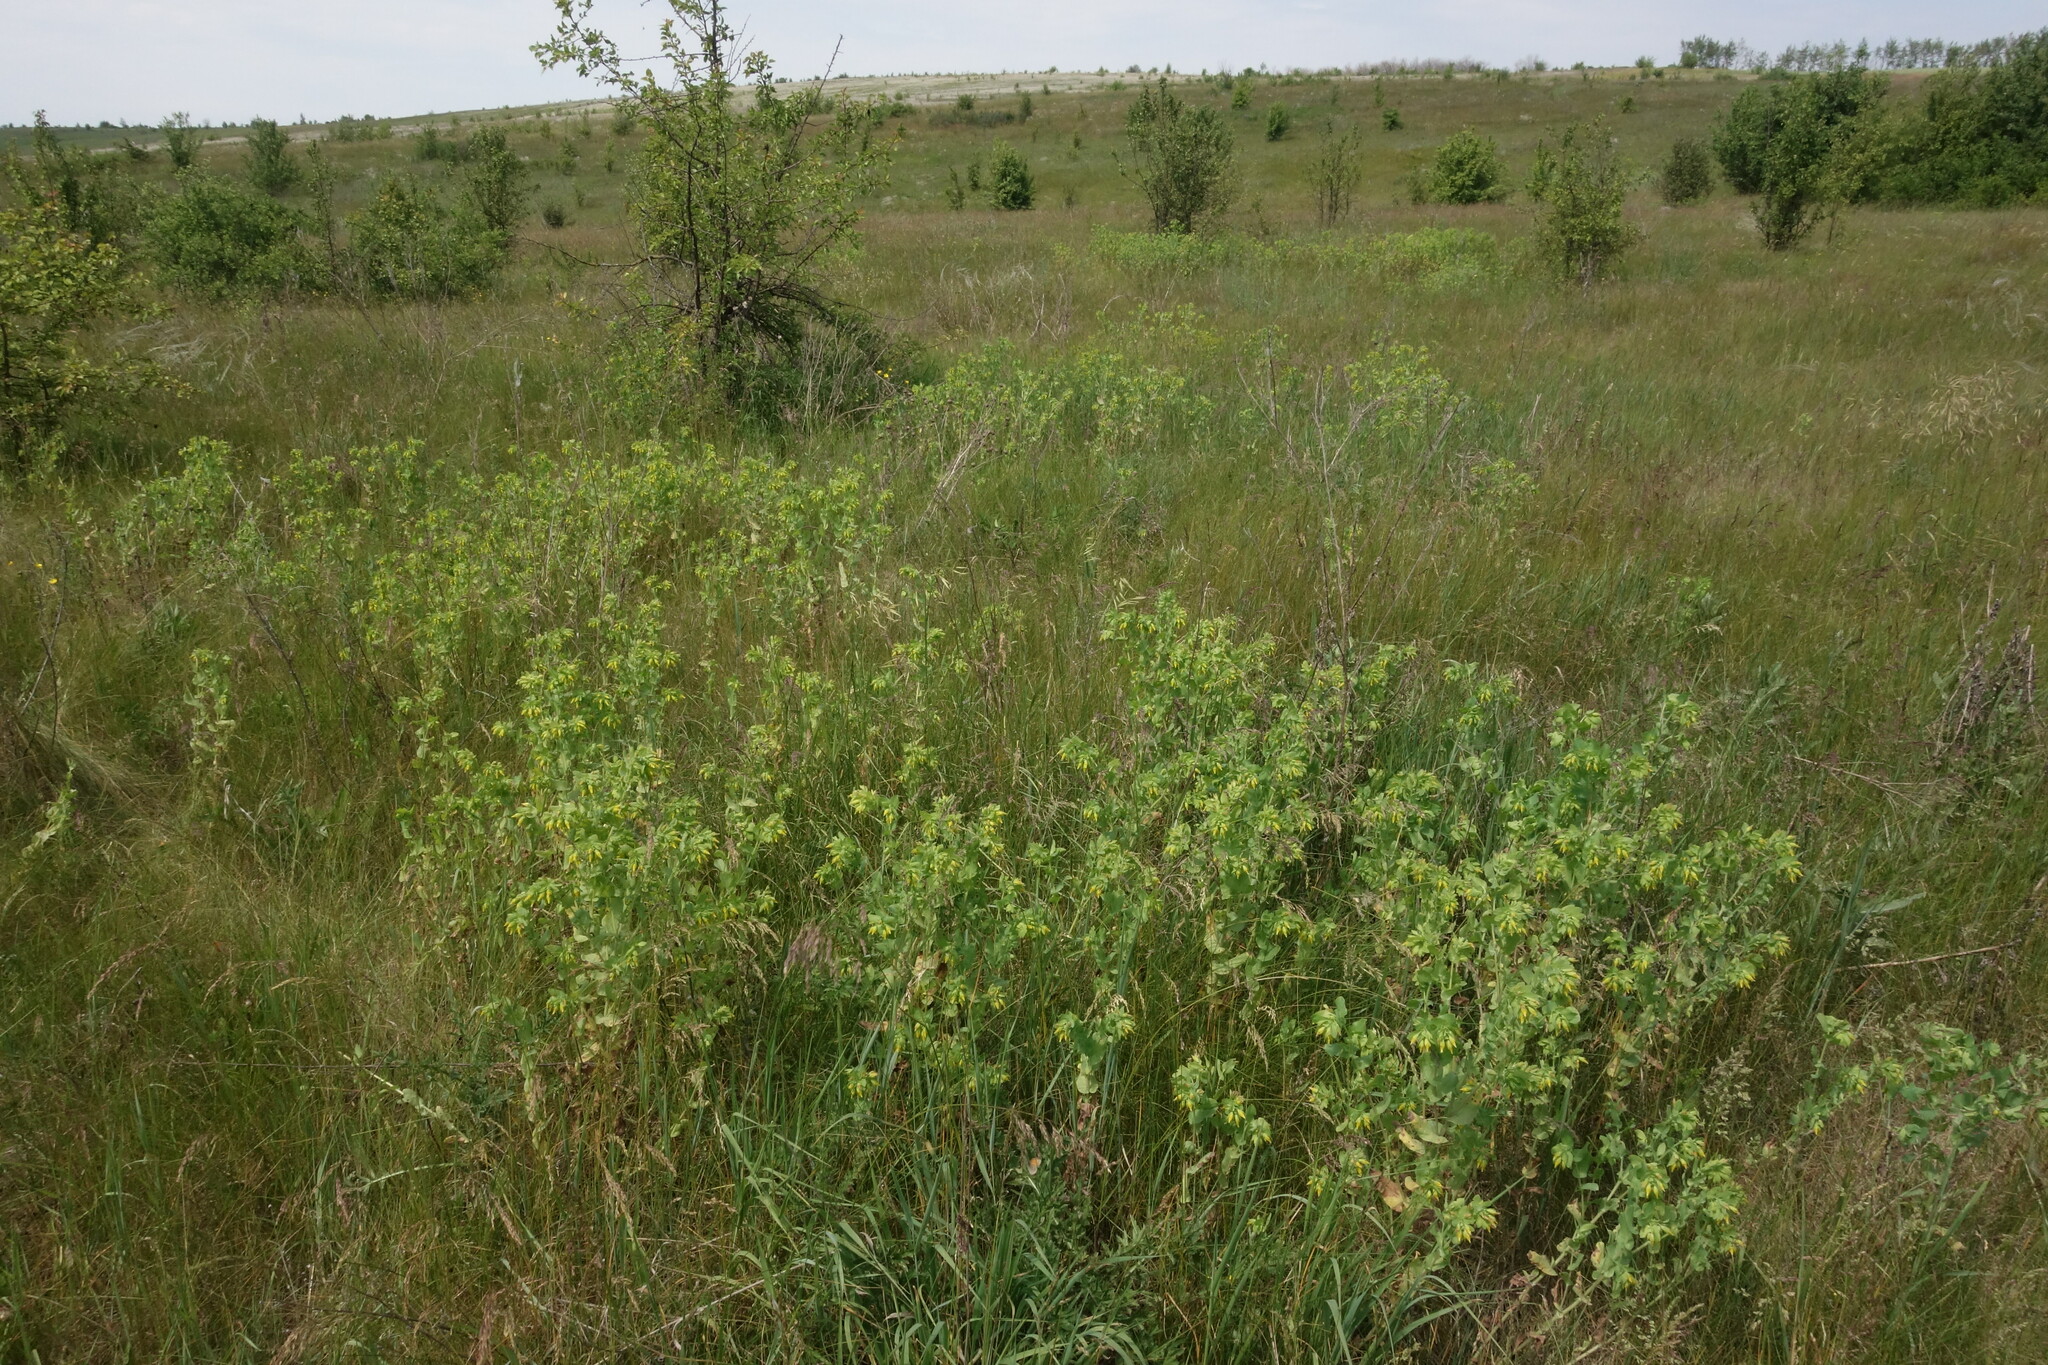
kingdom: Plantae
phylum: Tracheophyta
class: Magnoliopsida
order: Boraginales
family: Boraginaceae
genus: Cerinthe
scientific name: Cerinthe minor
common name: Lesser honeywort
